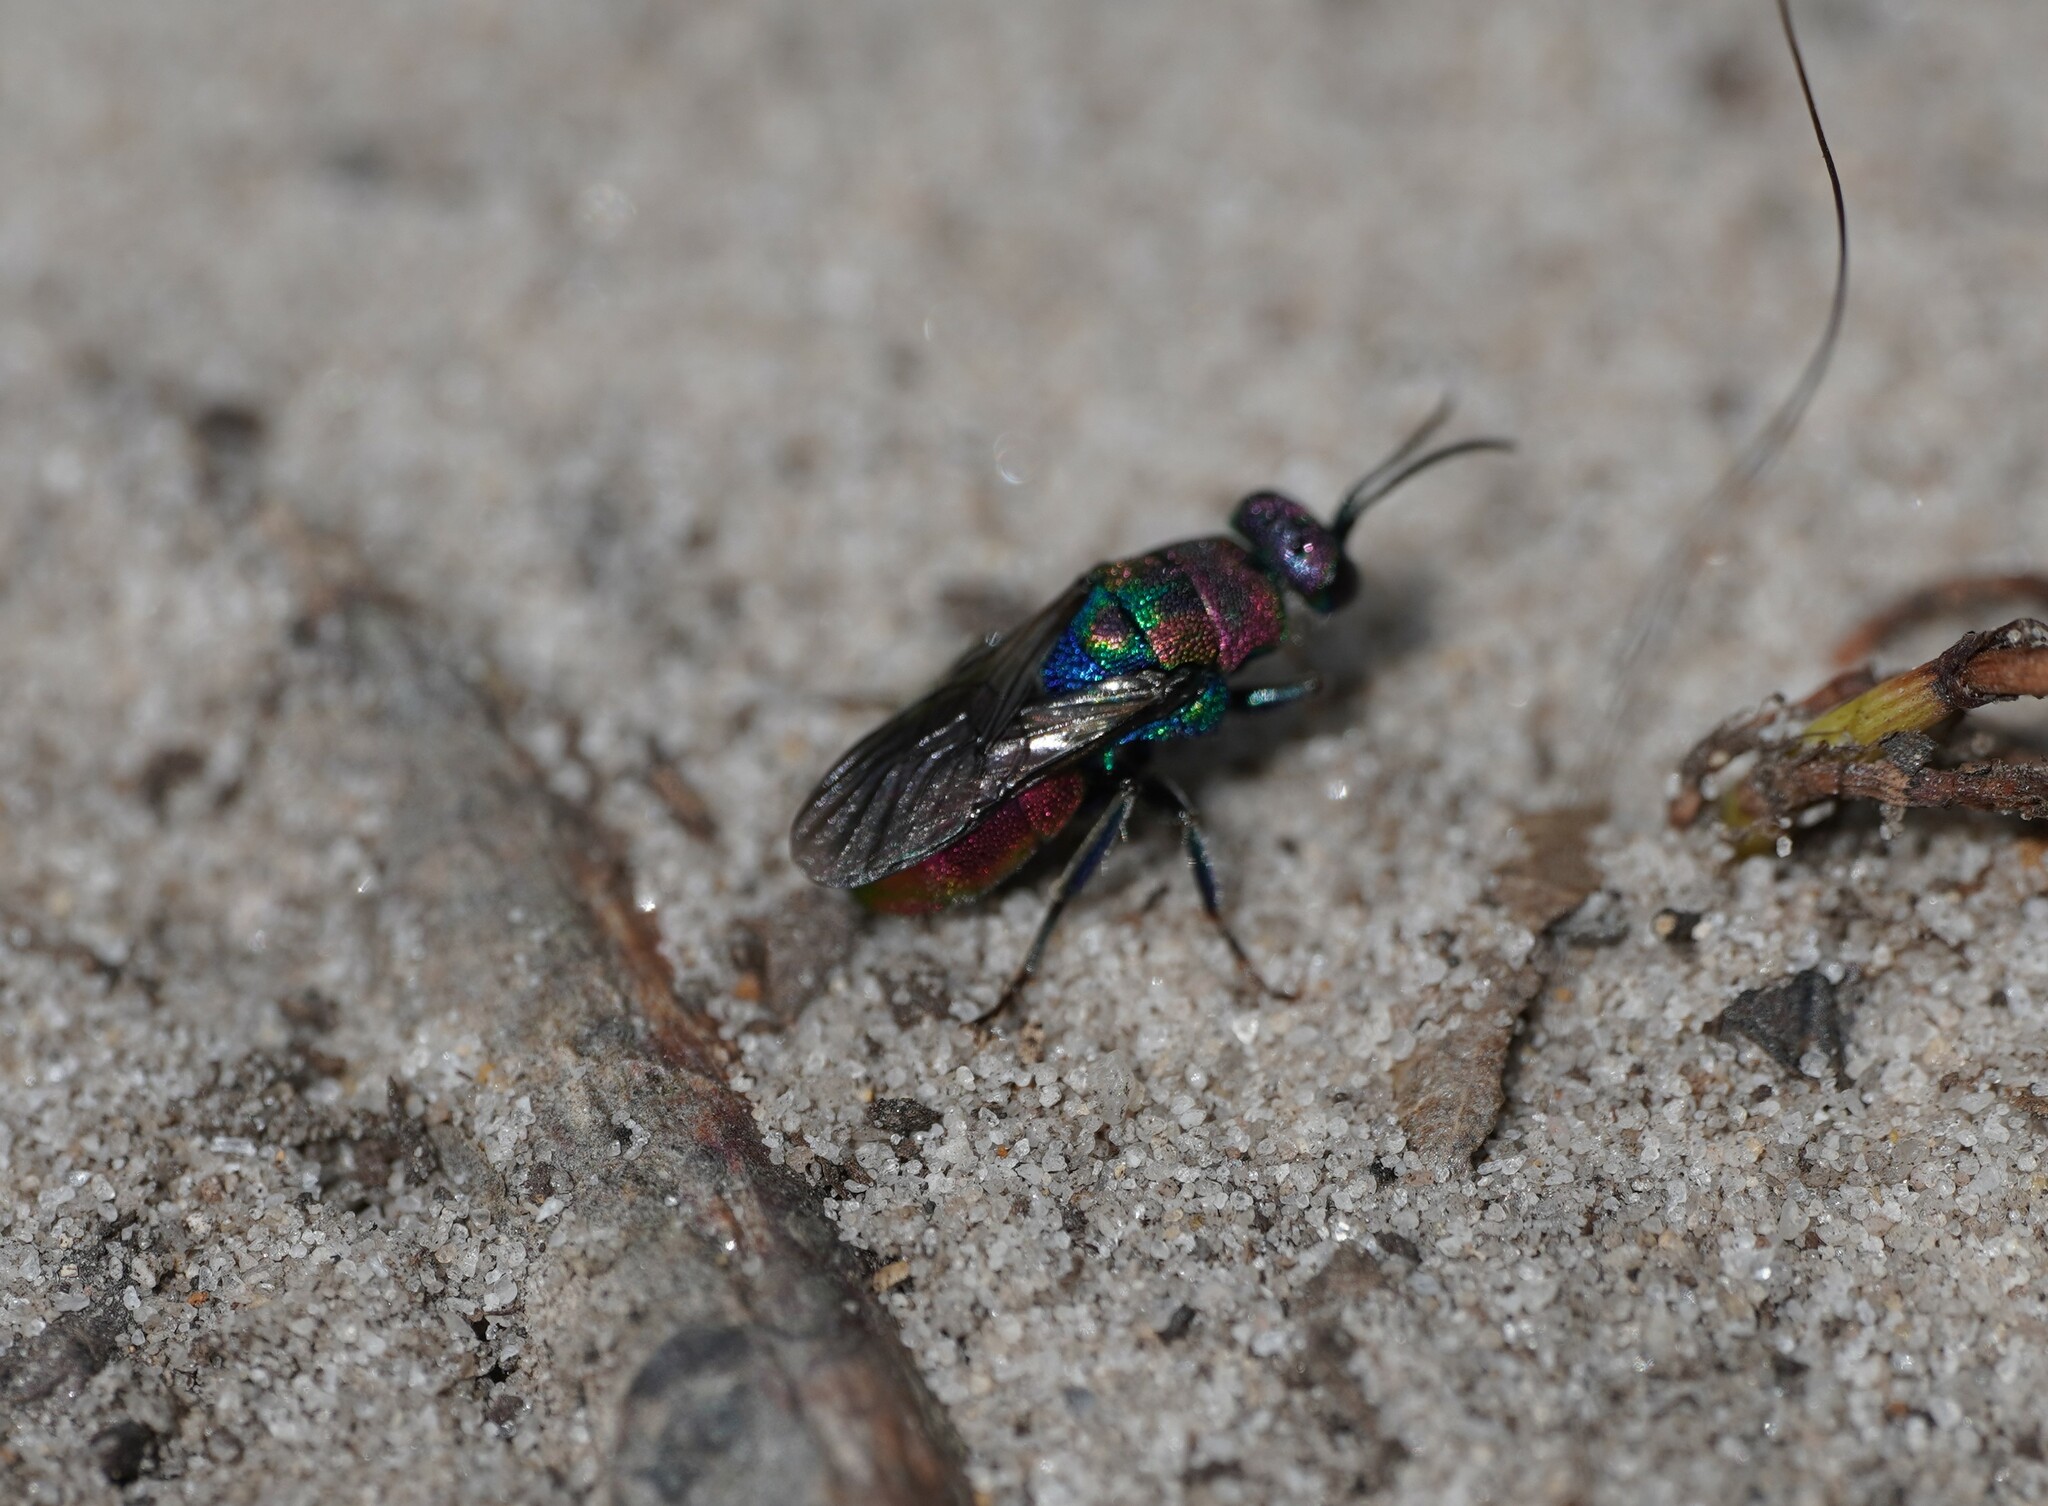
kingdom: Animalia
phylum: Arthropoda
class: Insecta
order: Hymenoptera
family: Chrysididae
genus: Hedychrum
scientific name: Hedychrum rutilans
